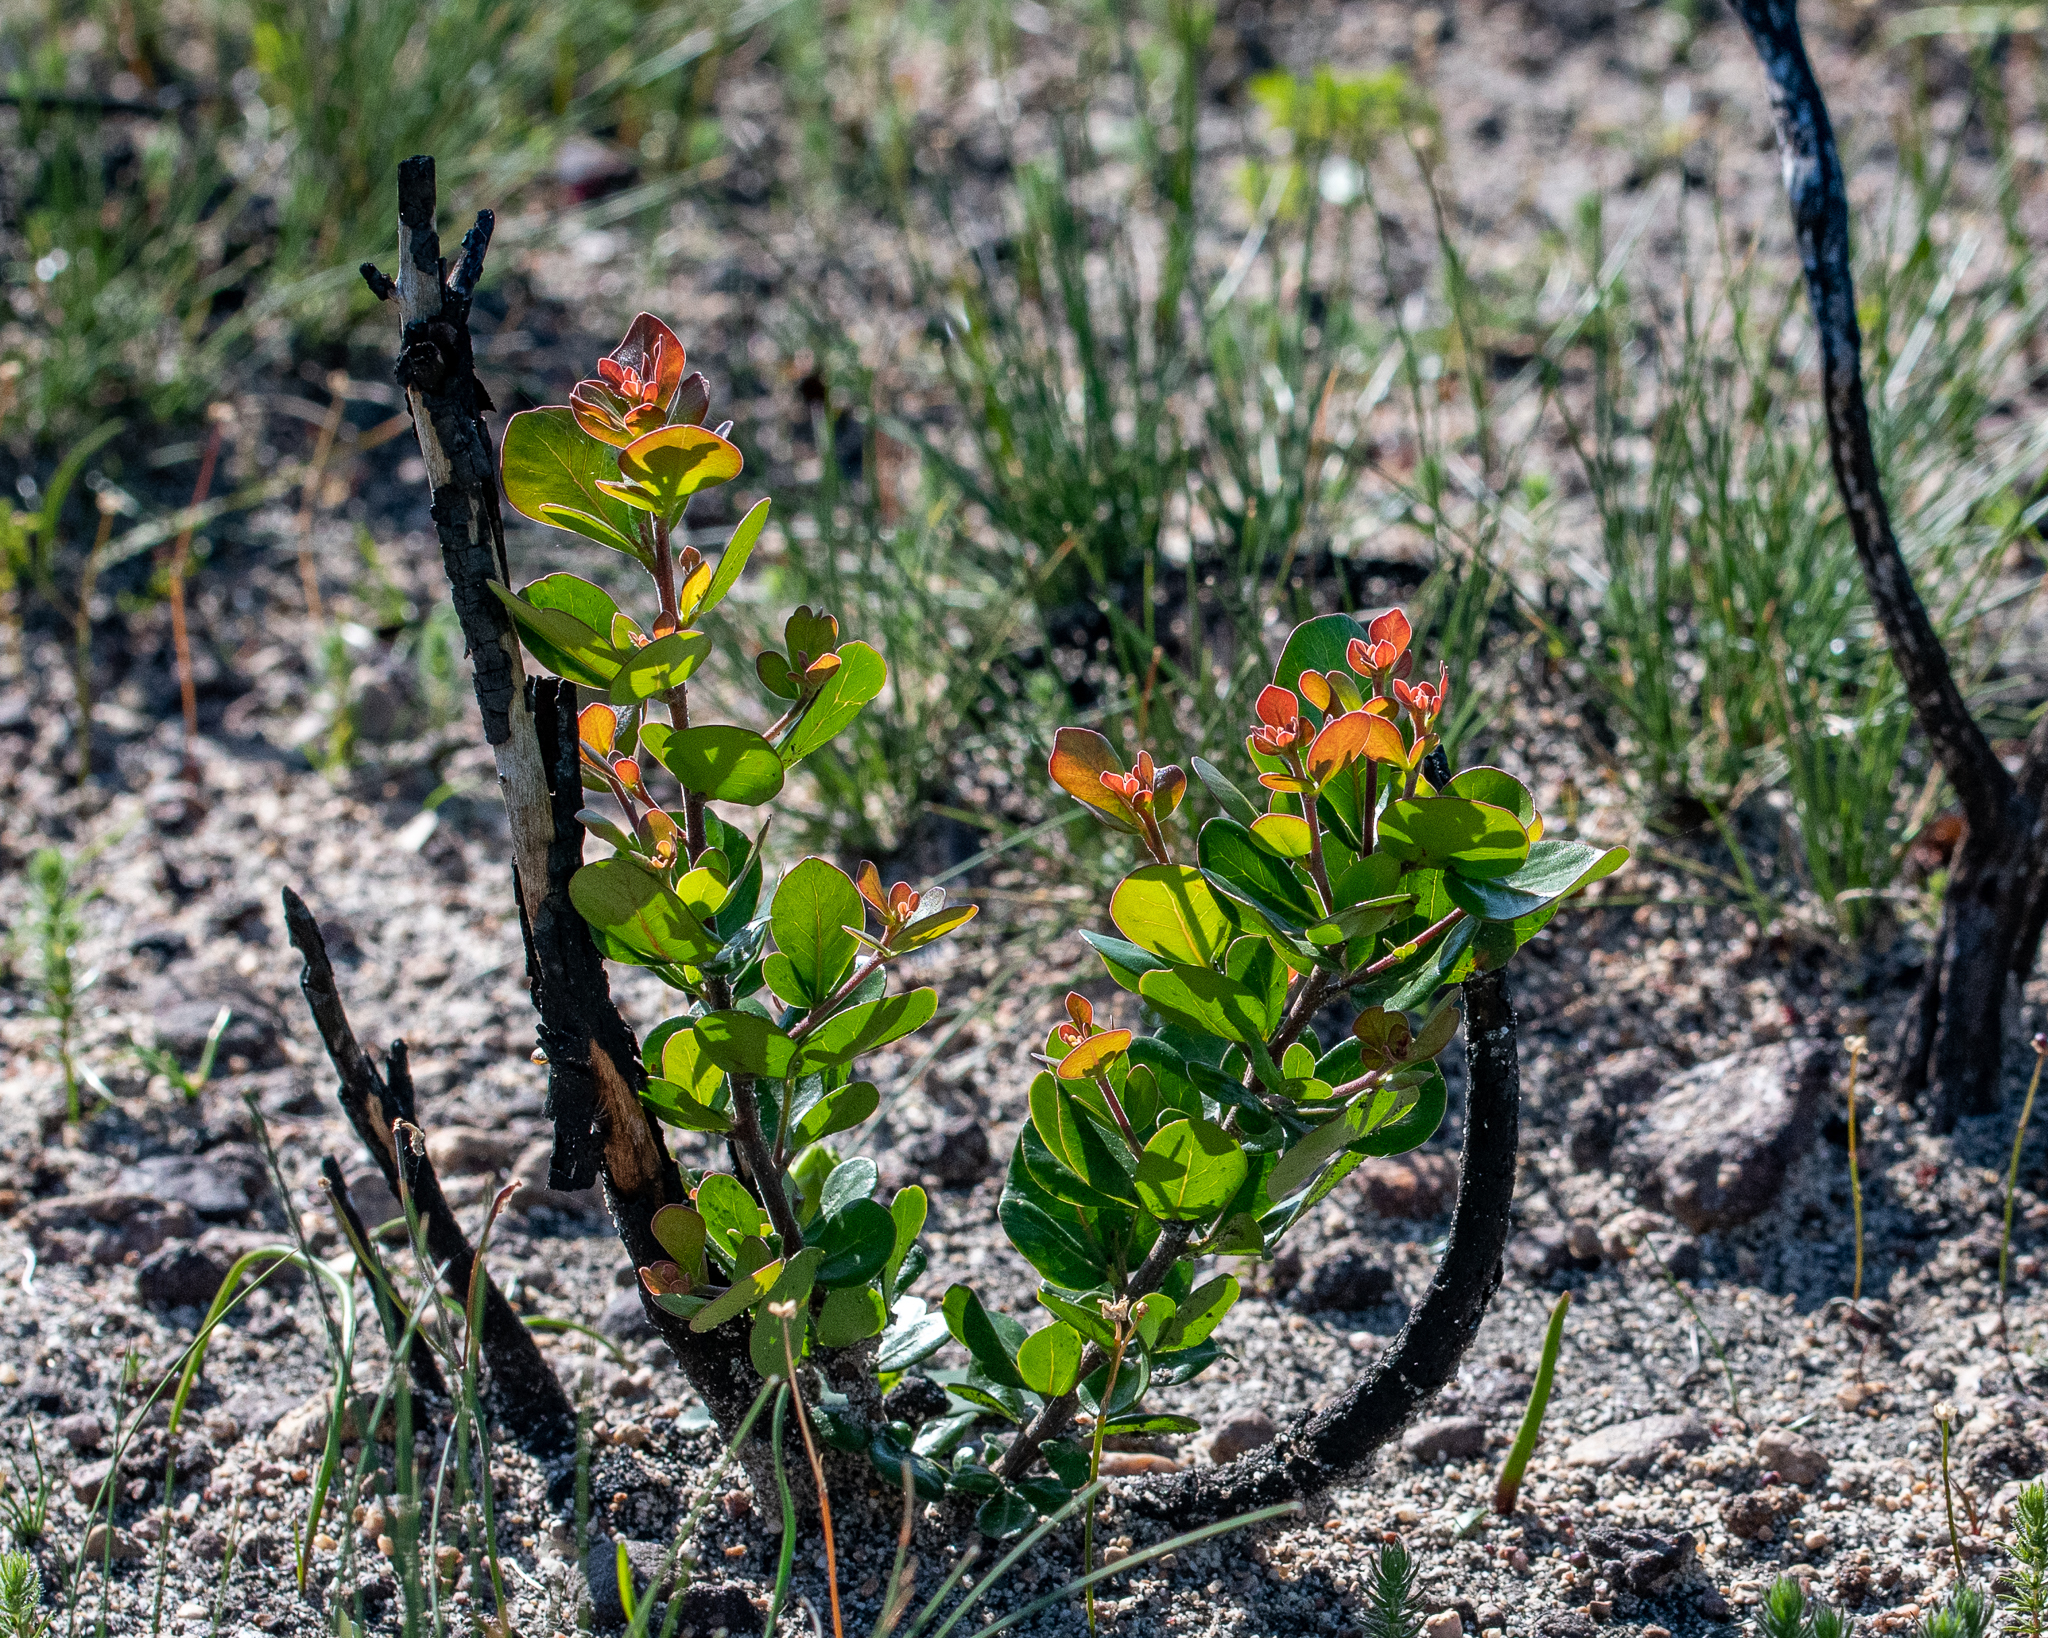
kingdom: Plantae
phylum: Tracheophyta
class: Magnoliopsida
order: Sapindales
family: Anacardiaceae
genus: Searsia
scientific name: Searsia lucida
